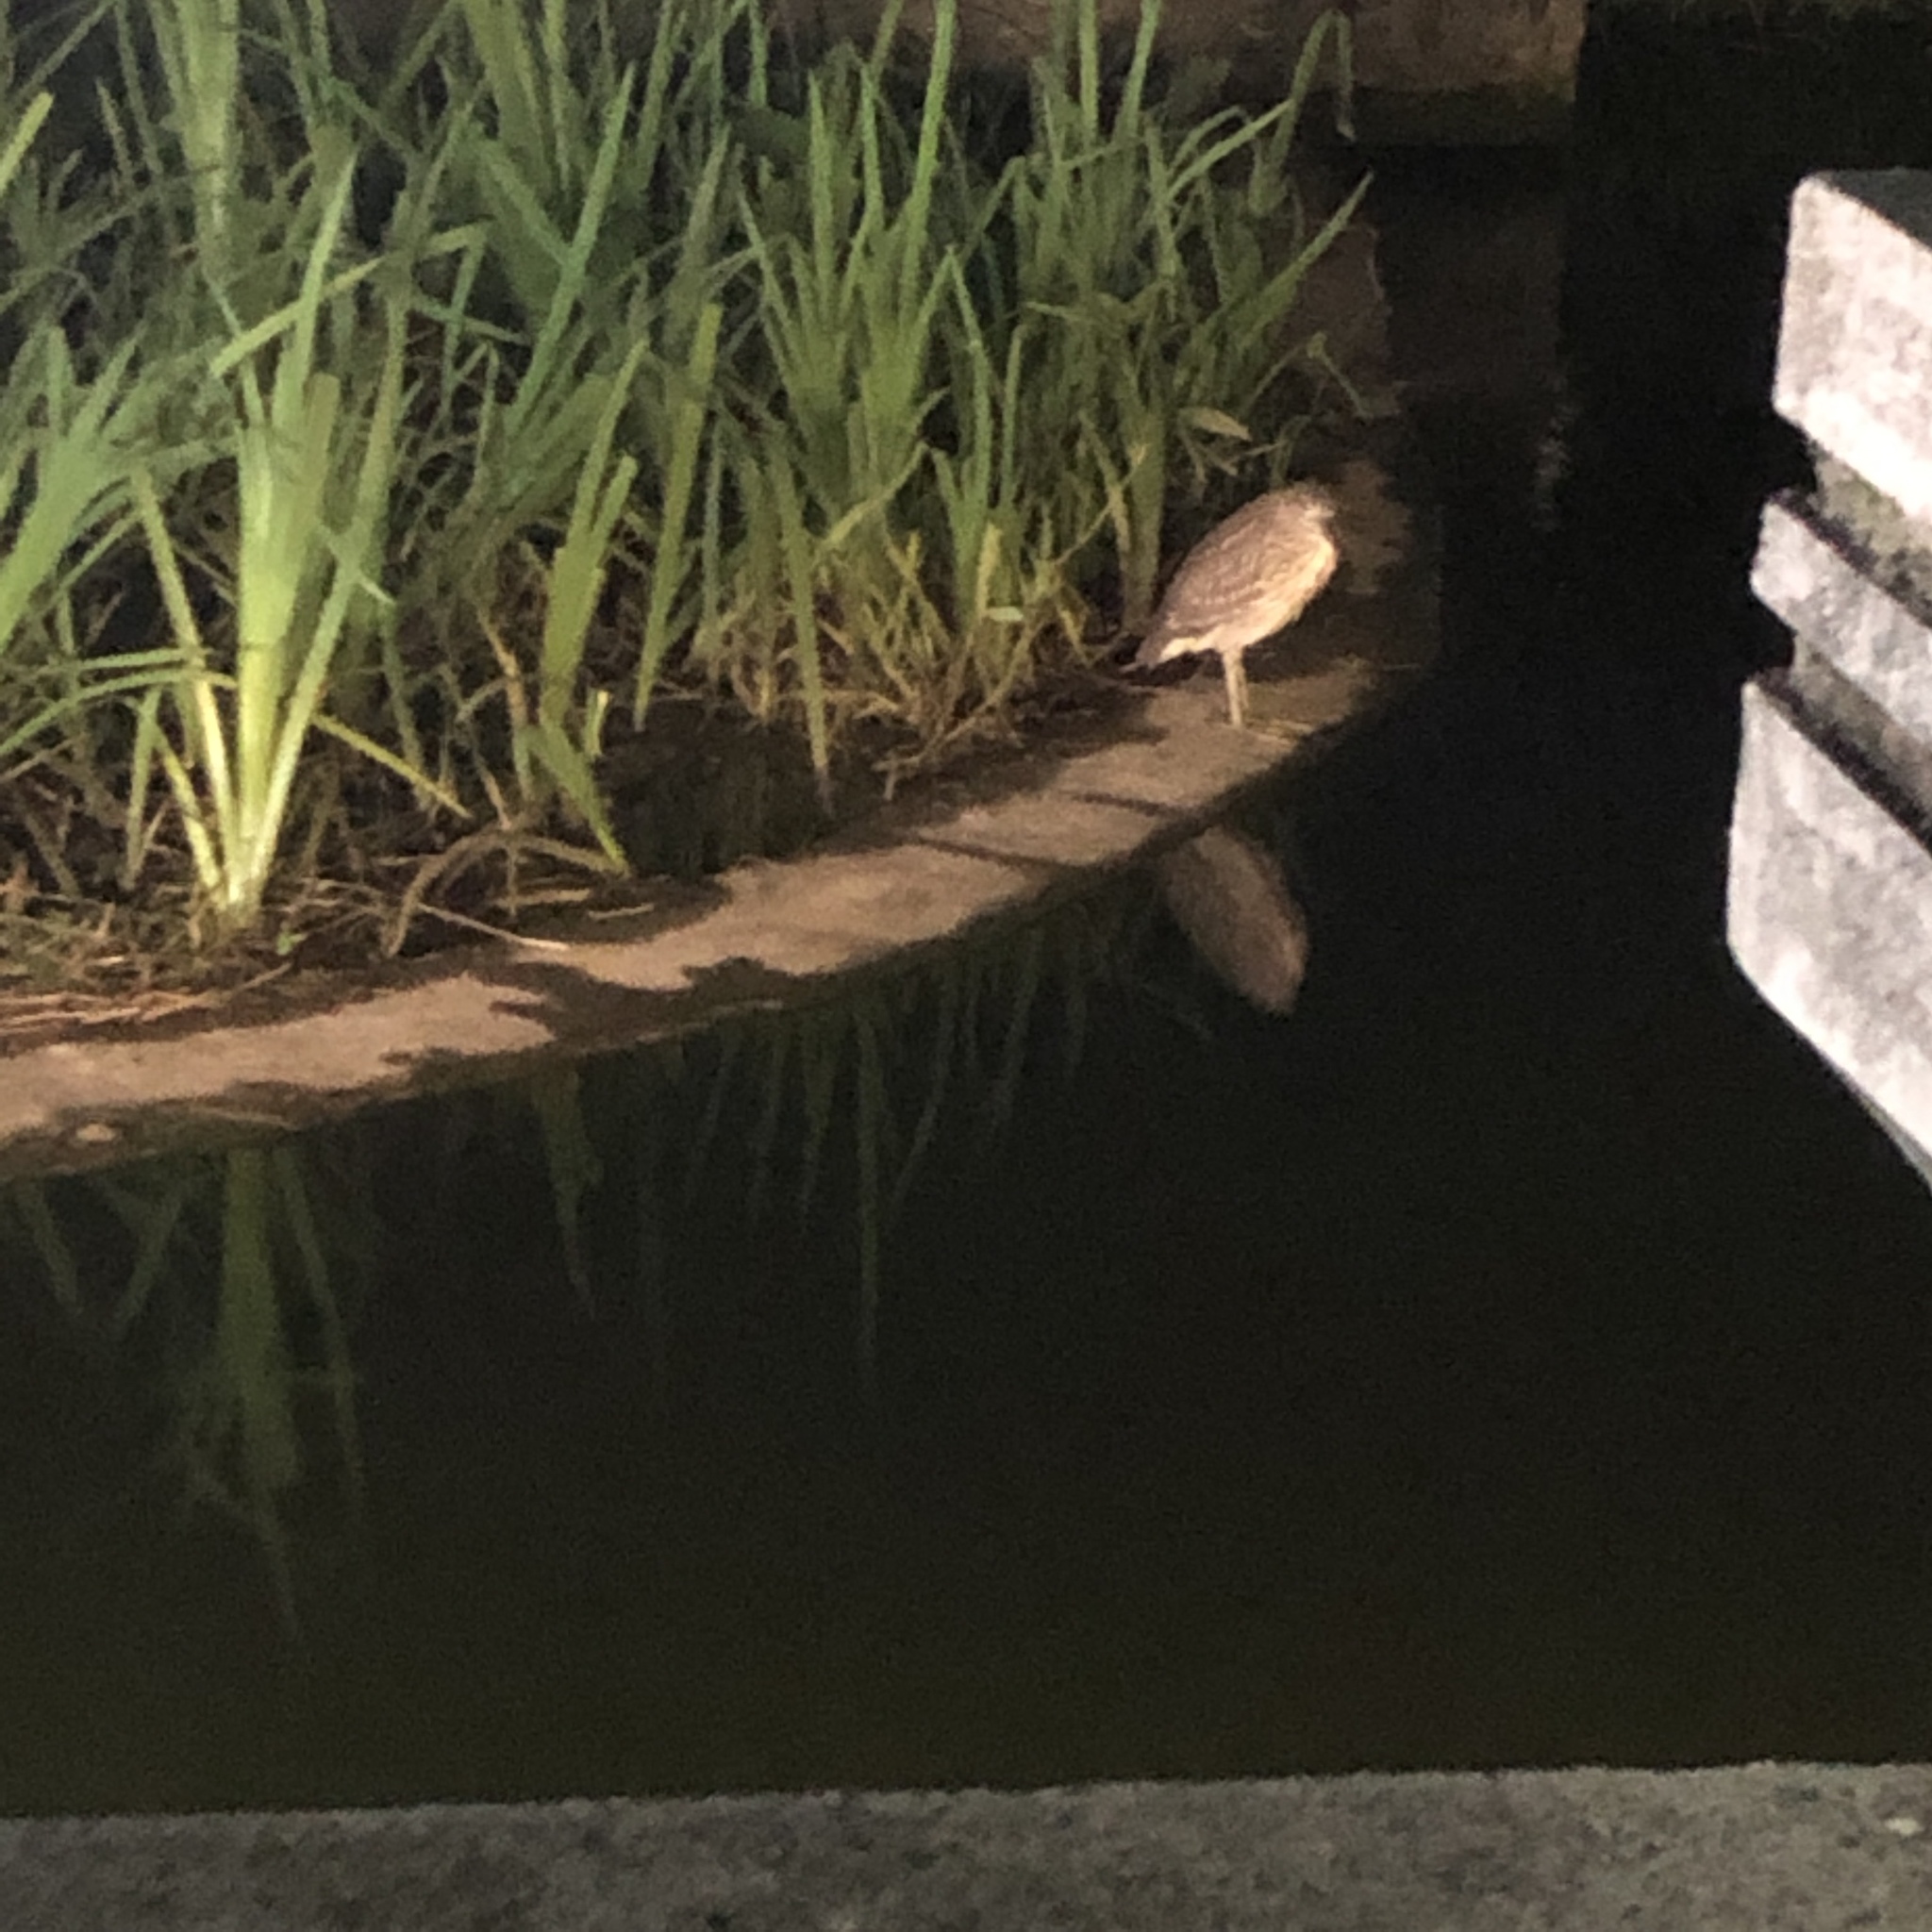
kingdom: Animalia
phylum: Chordata
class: Aves
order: Pelecaniformes
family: Ardeidae
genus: Nycticorax
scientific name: Nycticorax nycticorax
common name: Black-crowned night heron
